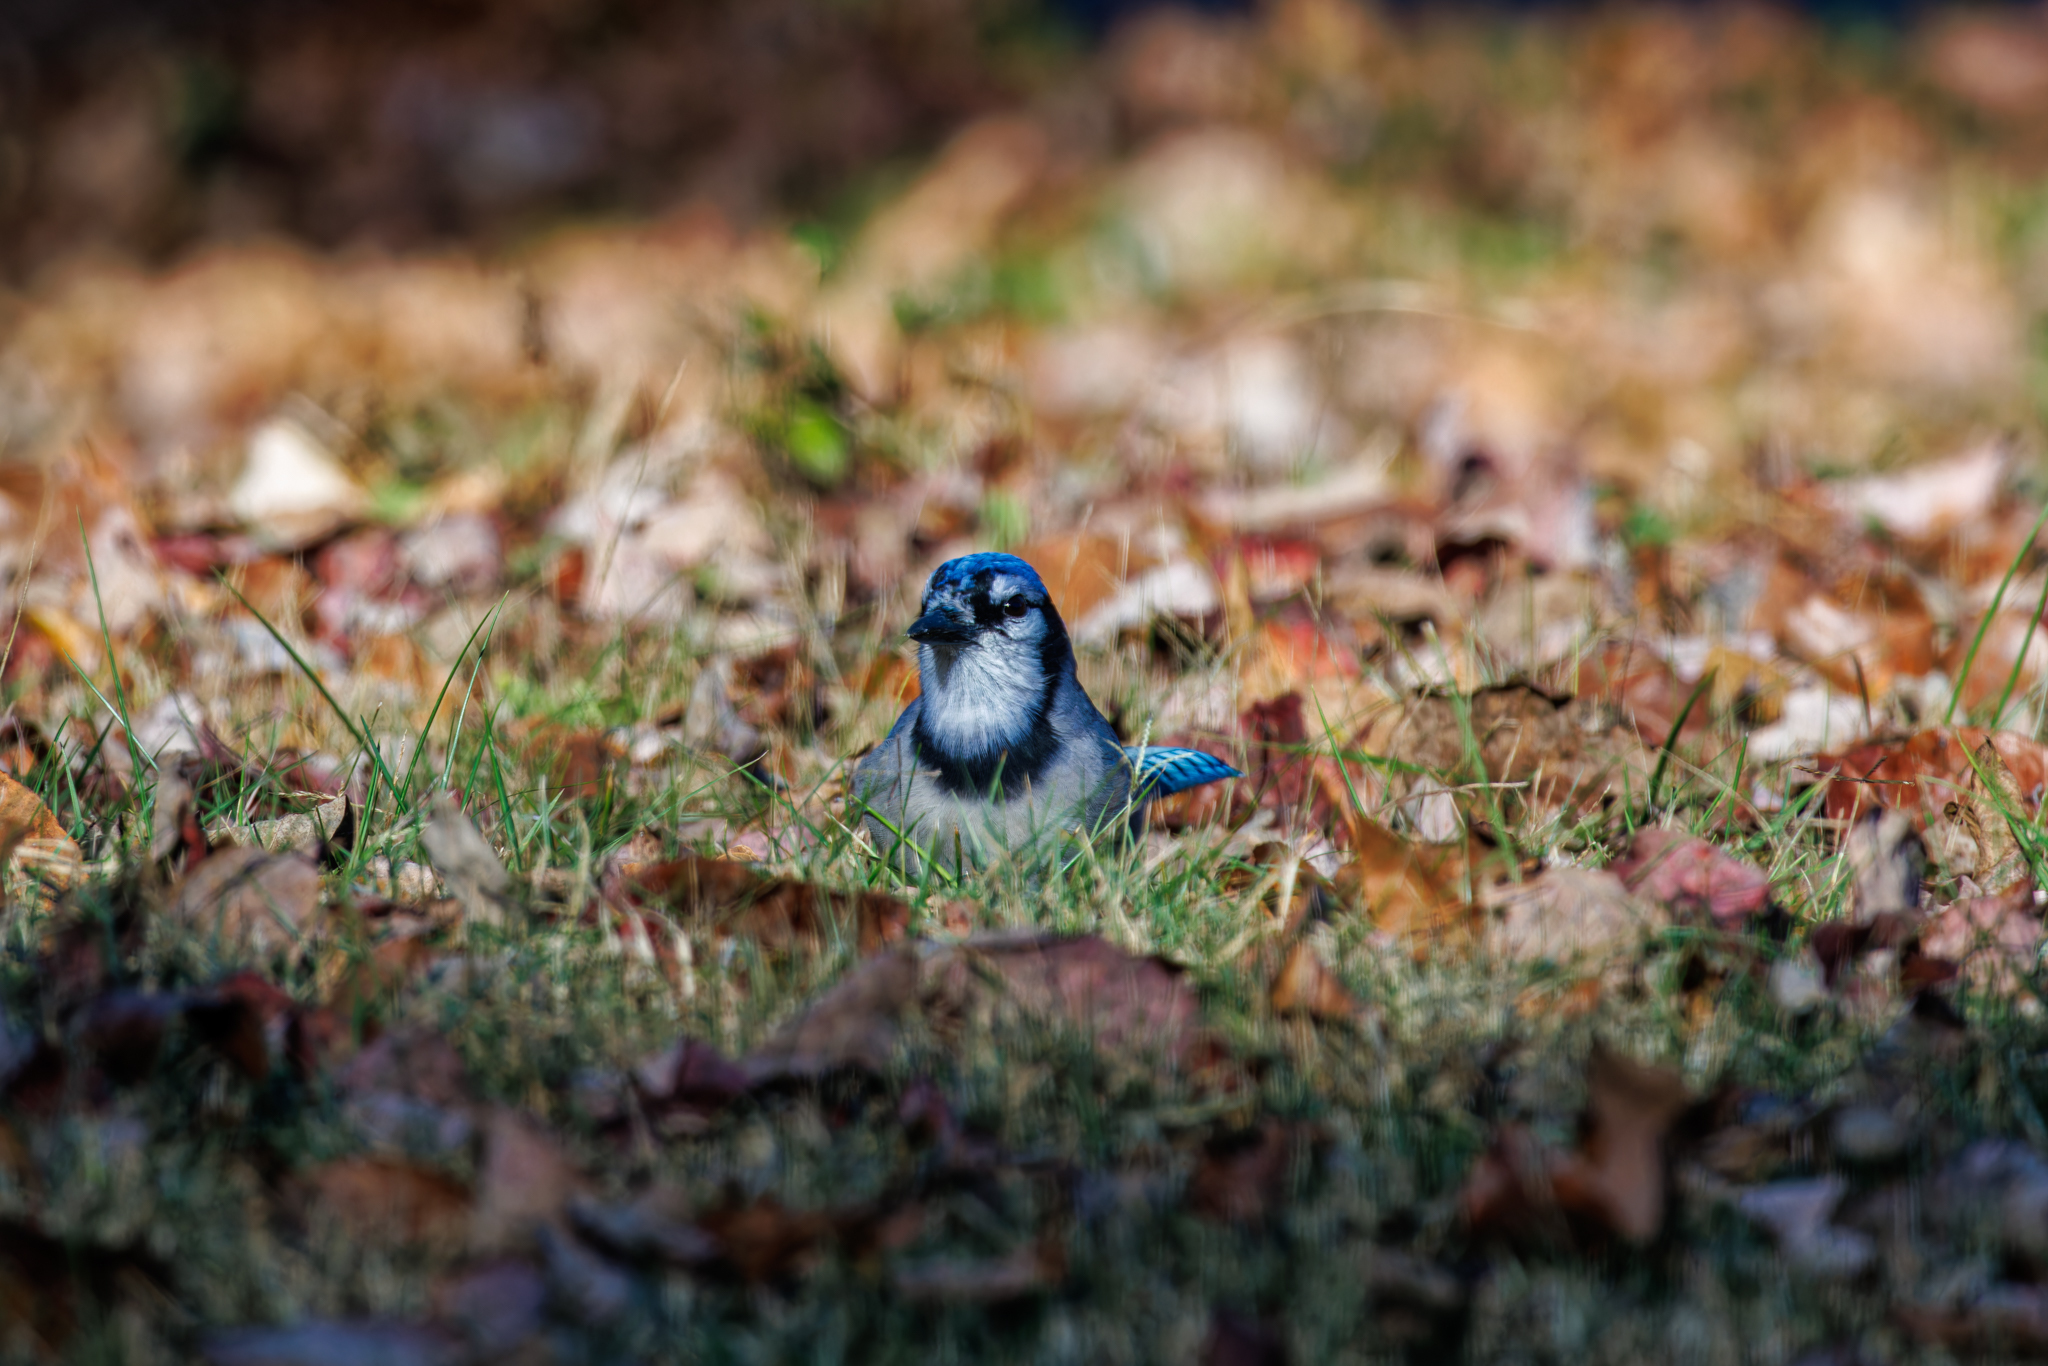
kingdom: Animalia
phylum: Chordata
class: Aves
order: Passeriformes
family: Corvidae
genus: Cyanocitta
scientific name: Cyanocitta cristata
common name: Blue jay
